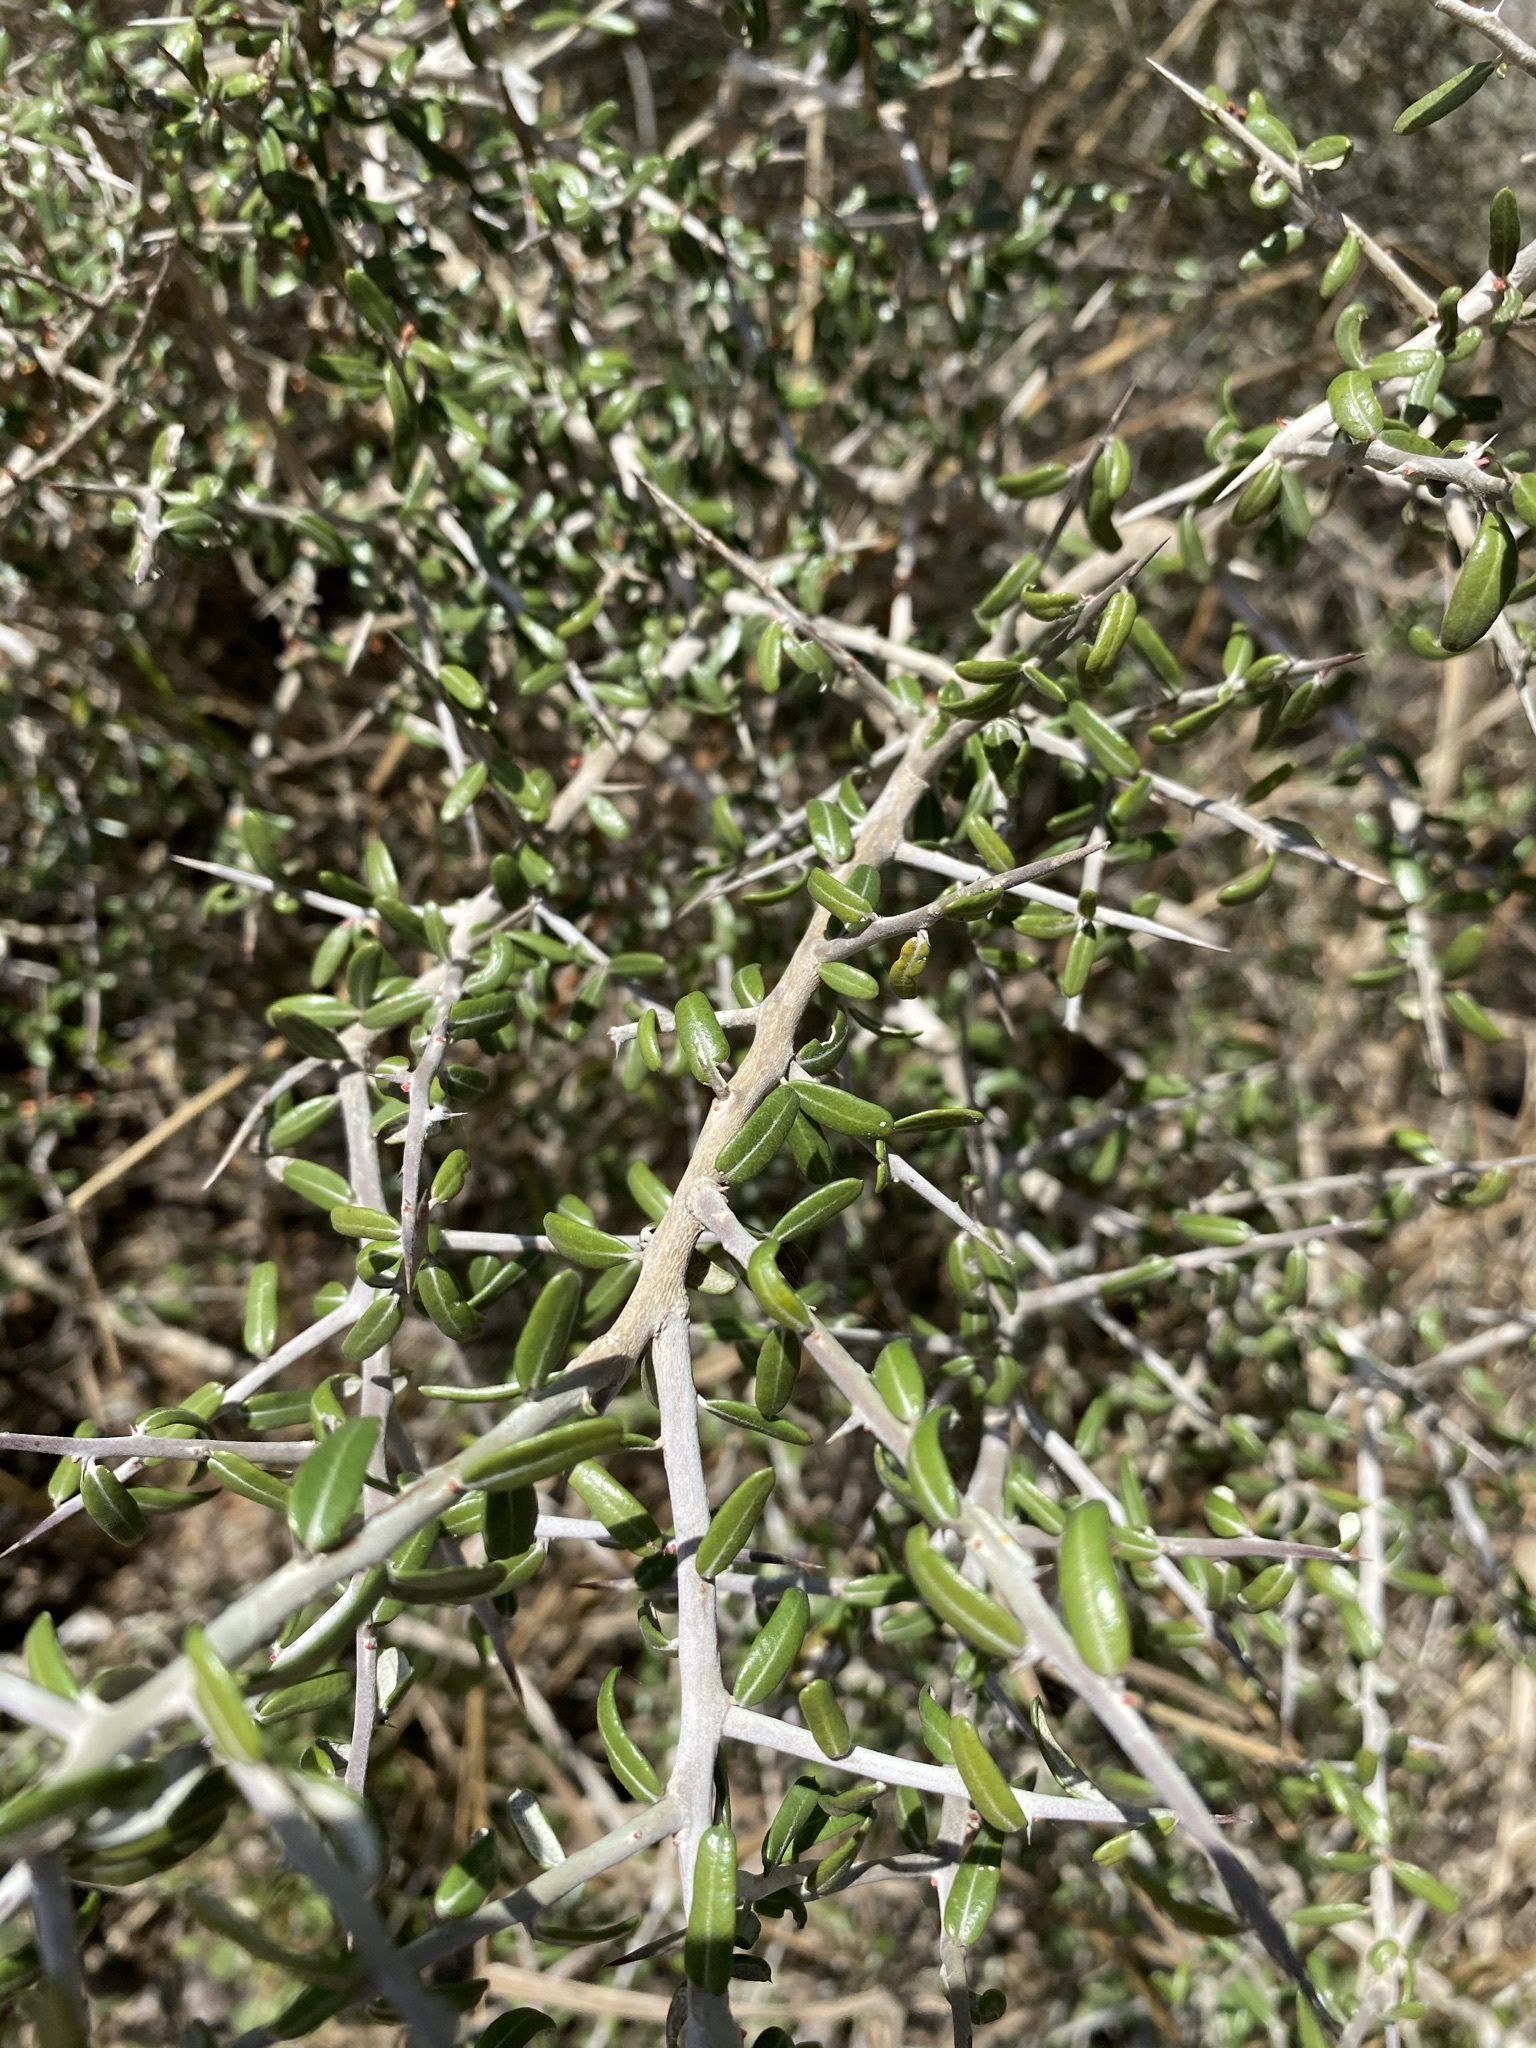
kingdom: Plantae
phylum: Tracheophyta
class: Magnoliopsida
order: Sapindales
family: Simaroubaceae
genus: Castela
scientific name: Castela erecta
